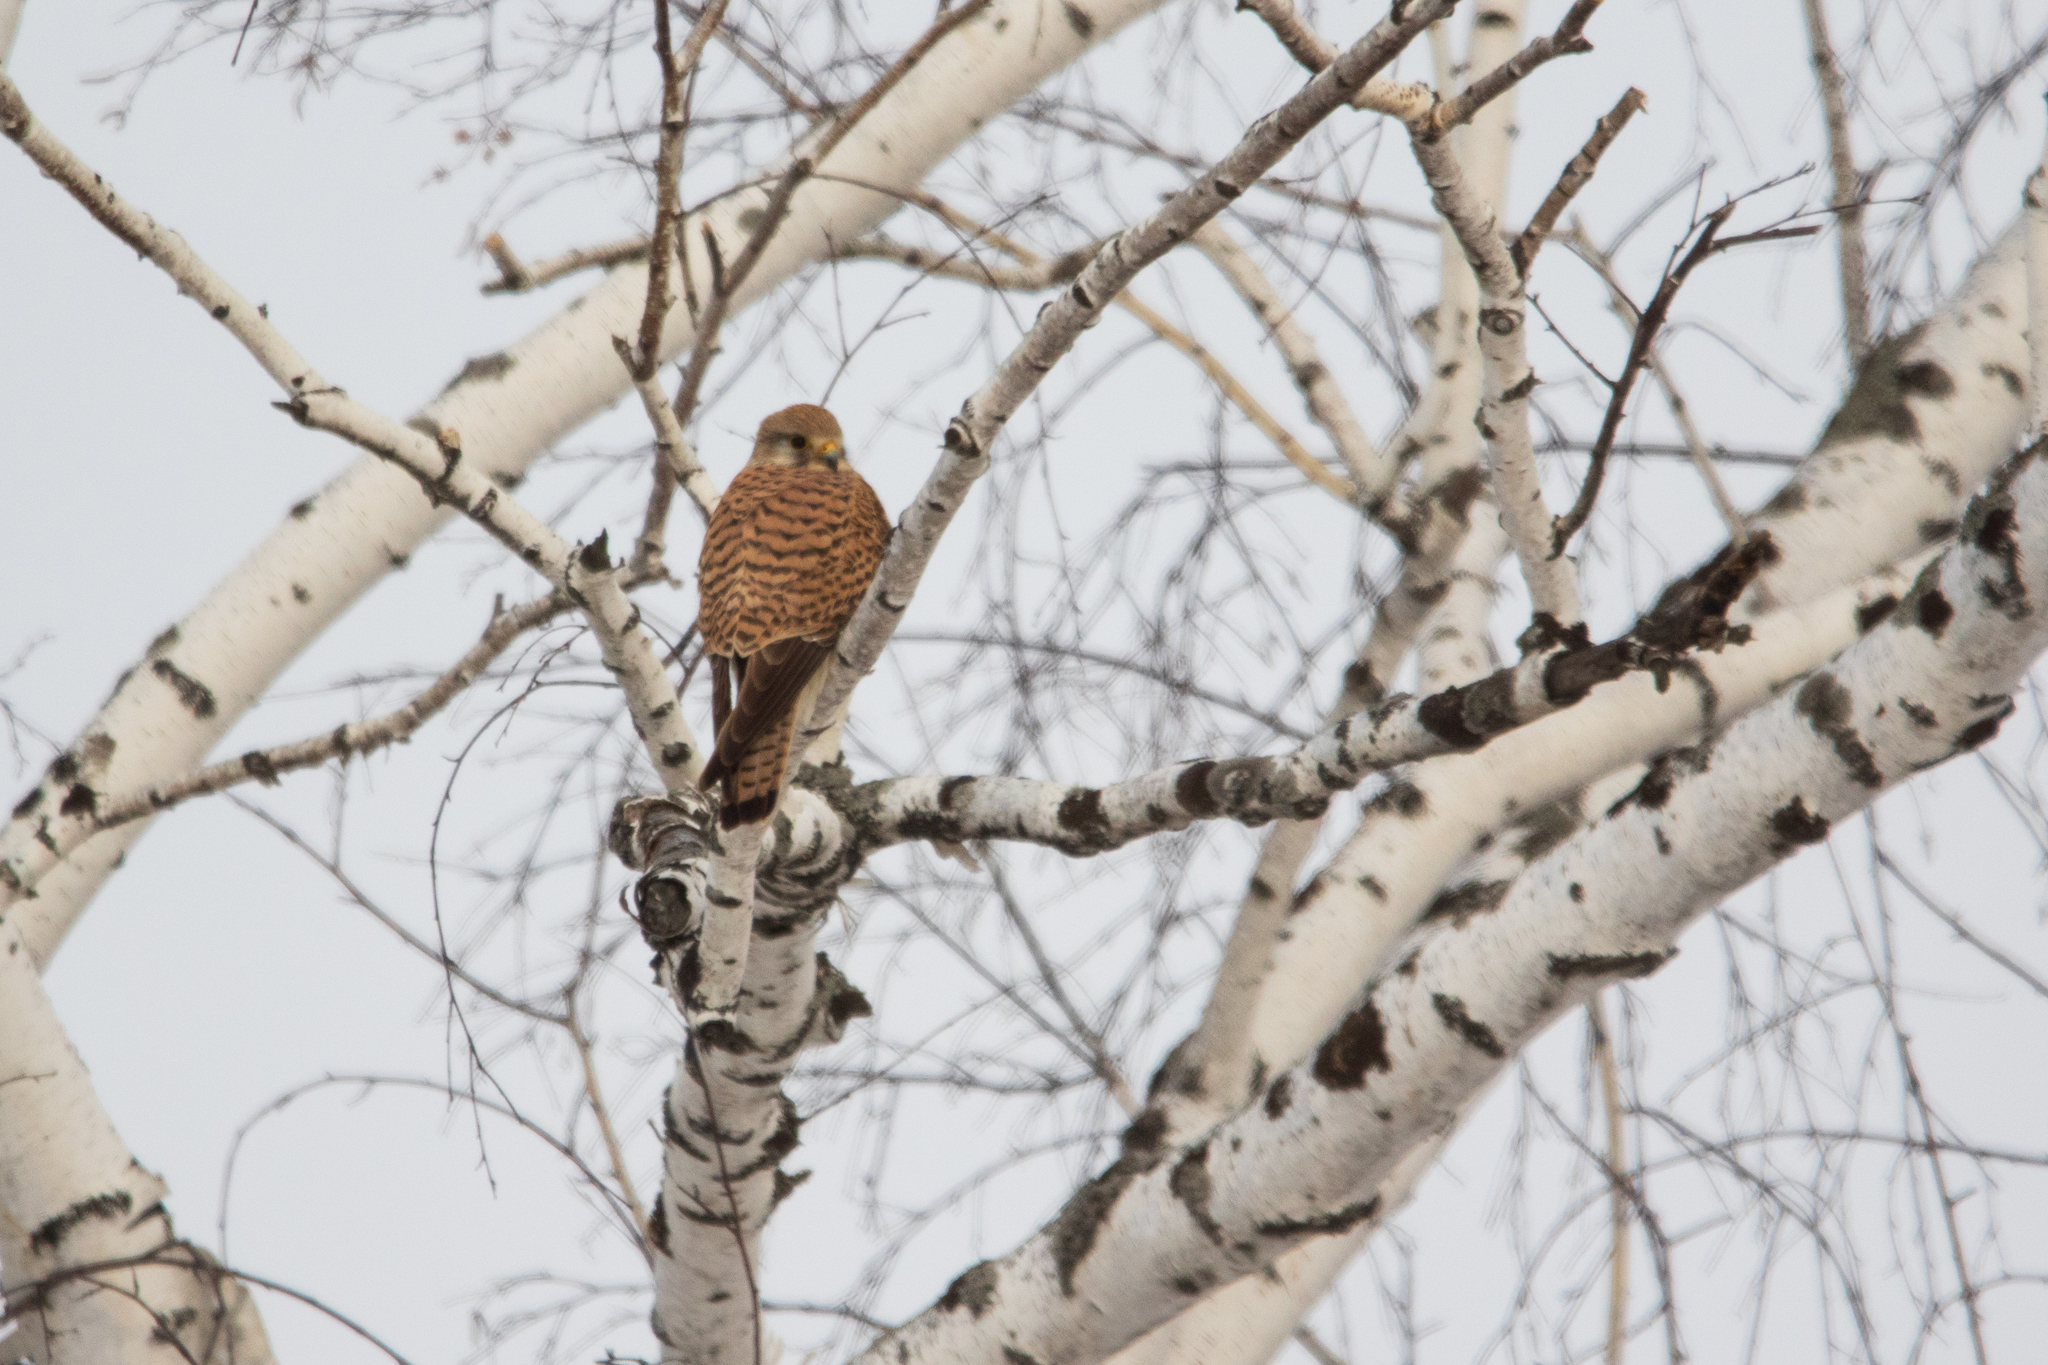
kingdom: Animalia
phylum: Chordata
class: Aves
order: Falconiformes
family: Falconidae
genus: Falco
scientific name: Falco tinnunculus
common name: Common kestrel
